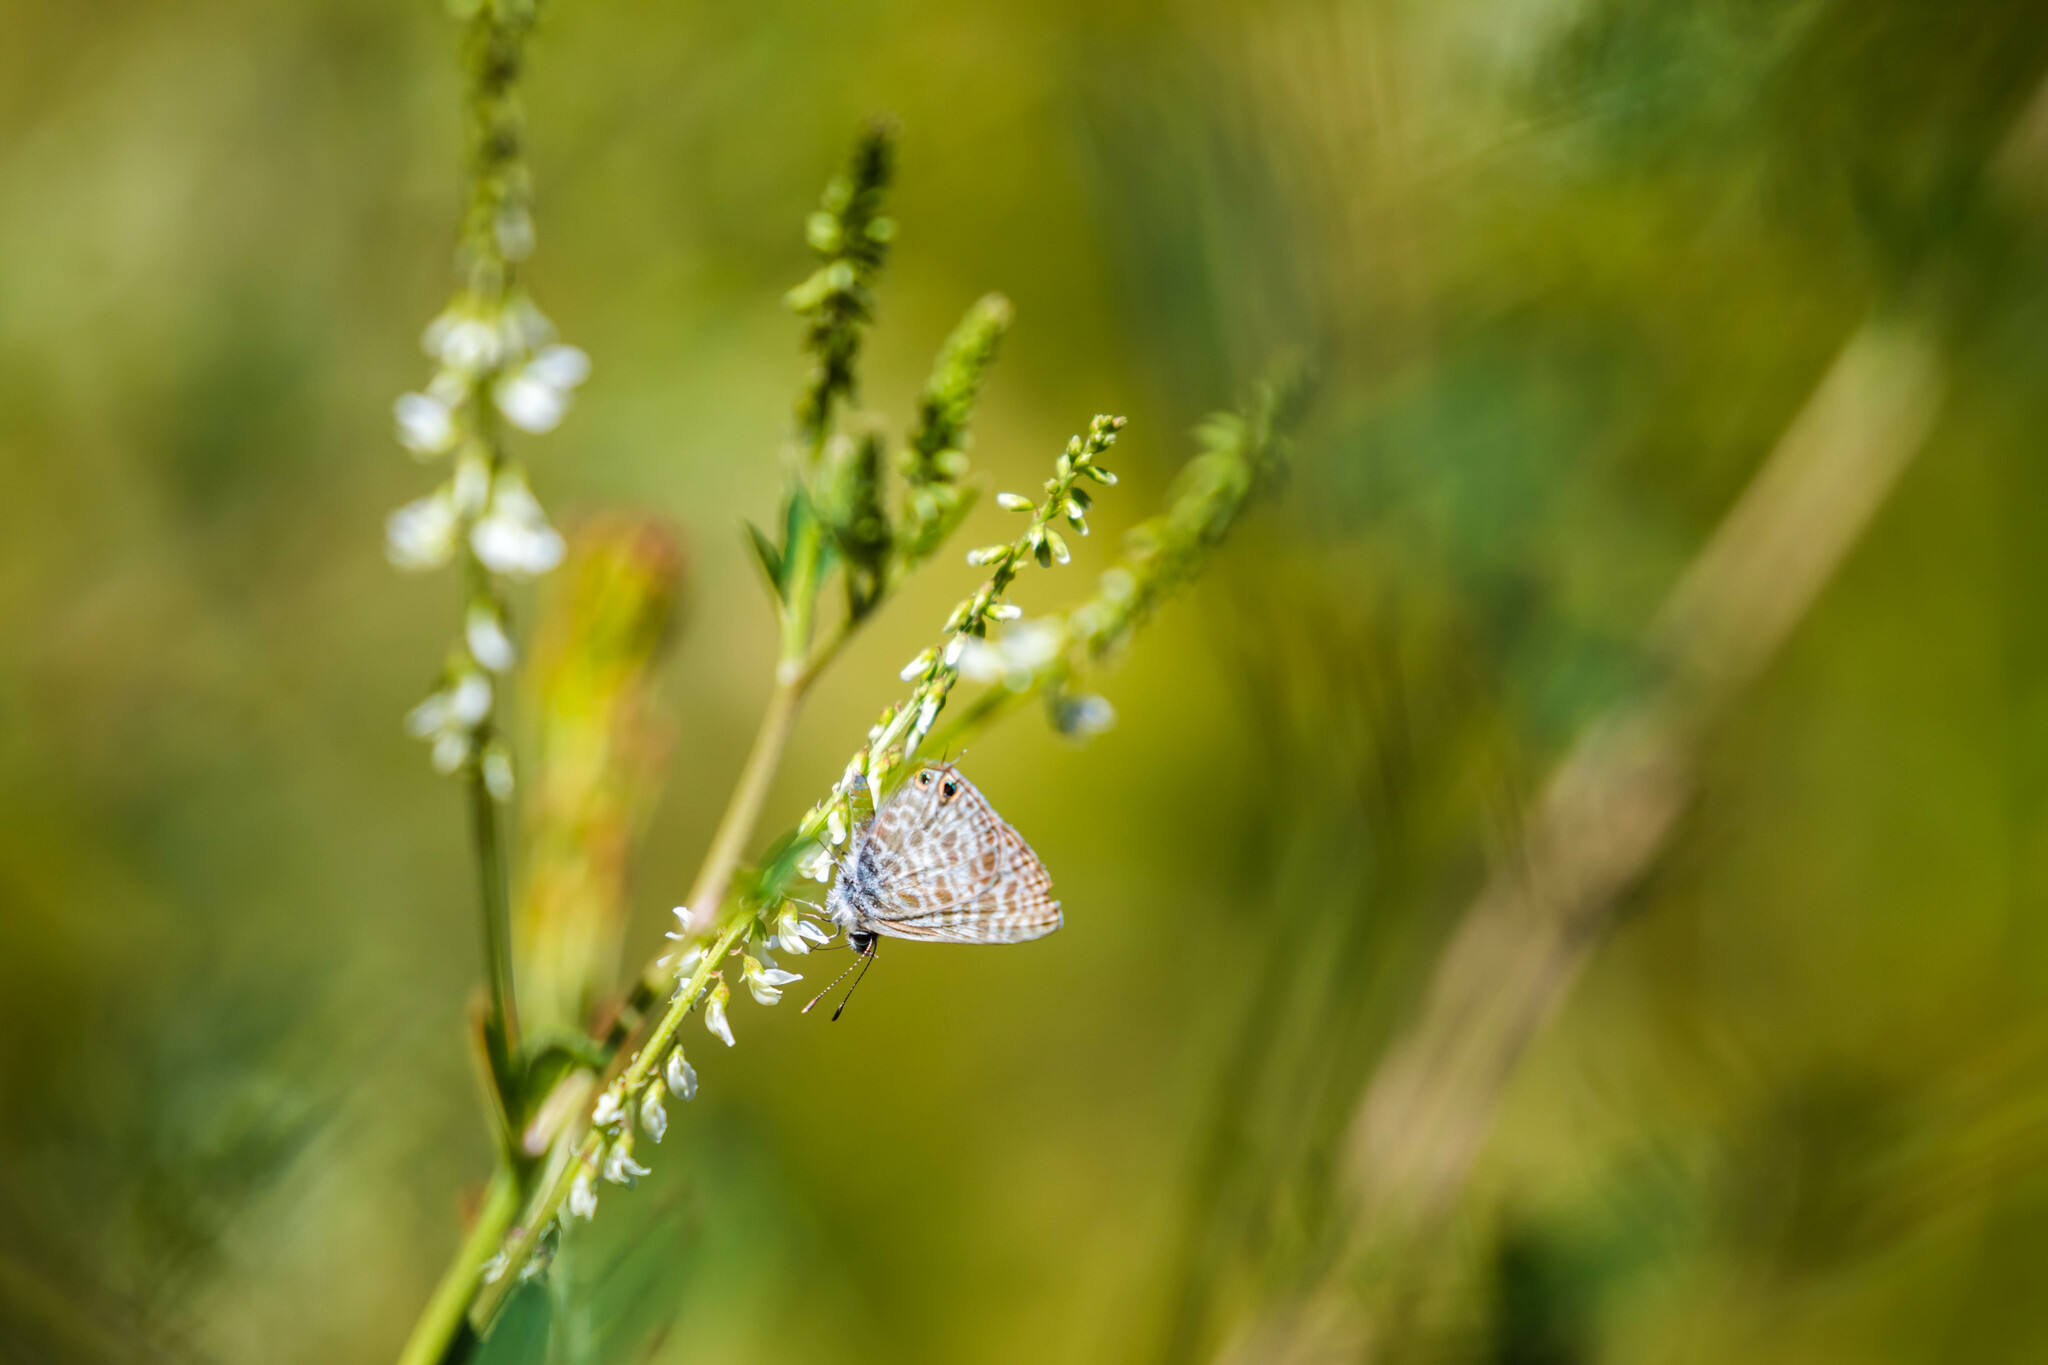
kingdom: Animalia
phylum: Arthropoda
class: Insecta
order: Lepidoptera
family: Lycaenidae
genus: Leptotes
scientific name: Leptotes pirithous
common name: Lang's short-tailed blue
